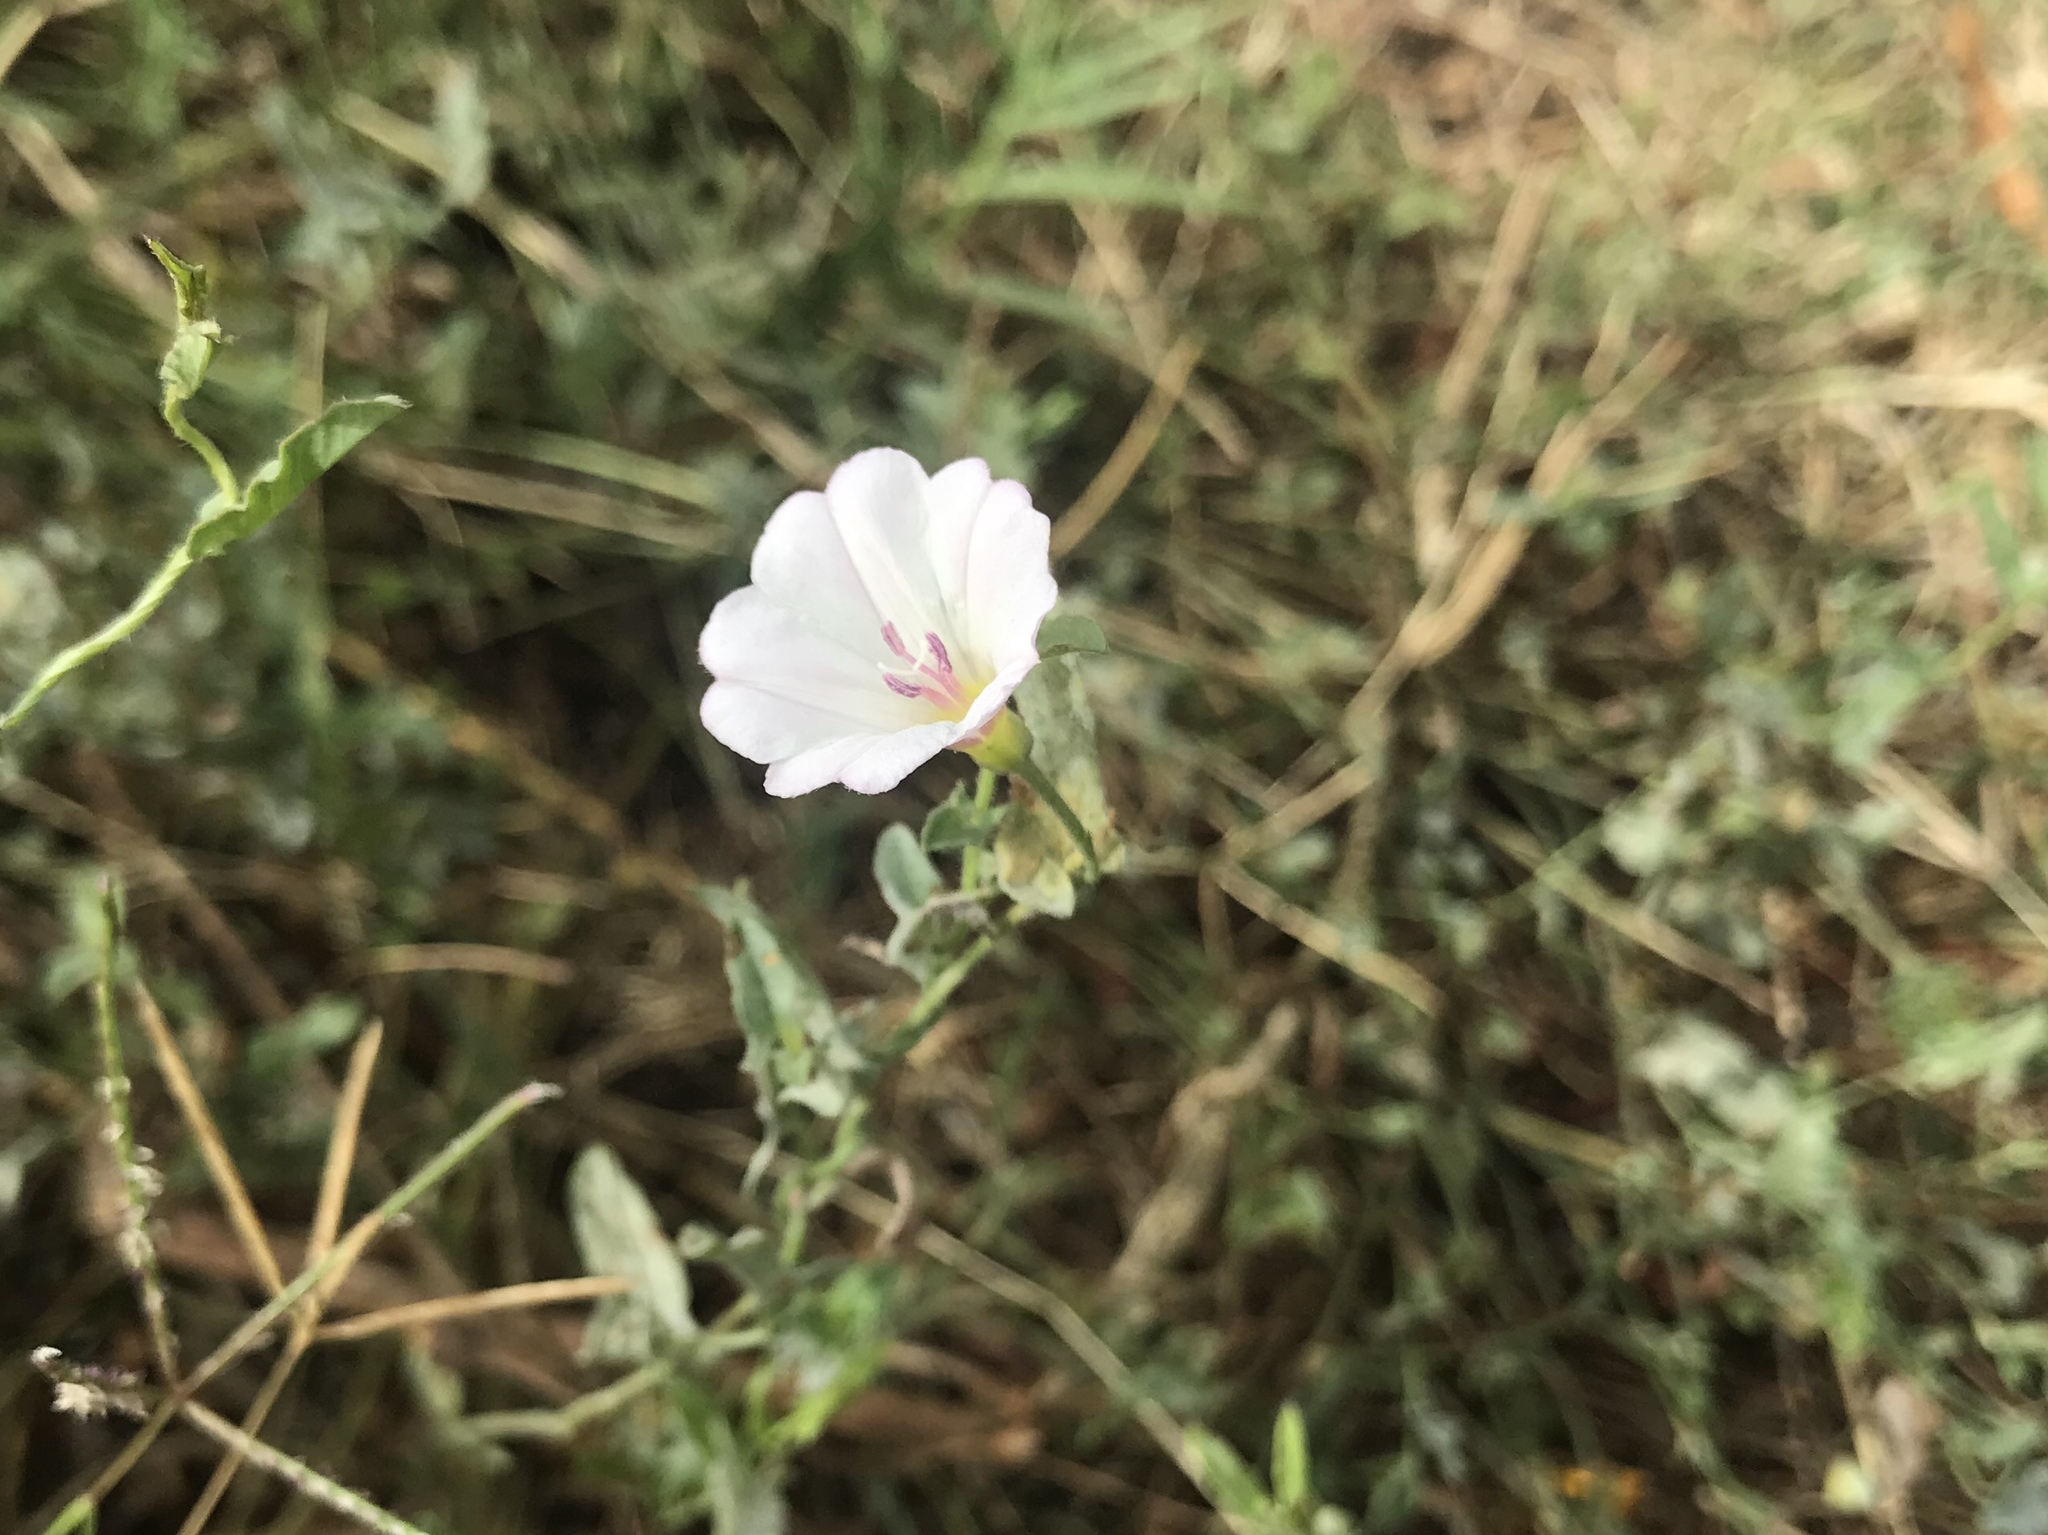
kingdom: Plantae
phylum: Tracheophyta
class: Magnoliopsida
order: Solanales
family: Convolvulaceae
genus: Convolvulus
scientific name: Convolvulus arvensis
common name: Field bindweed
